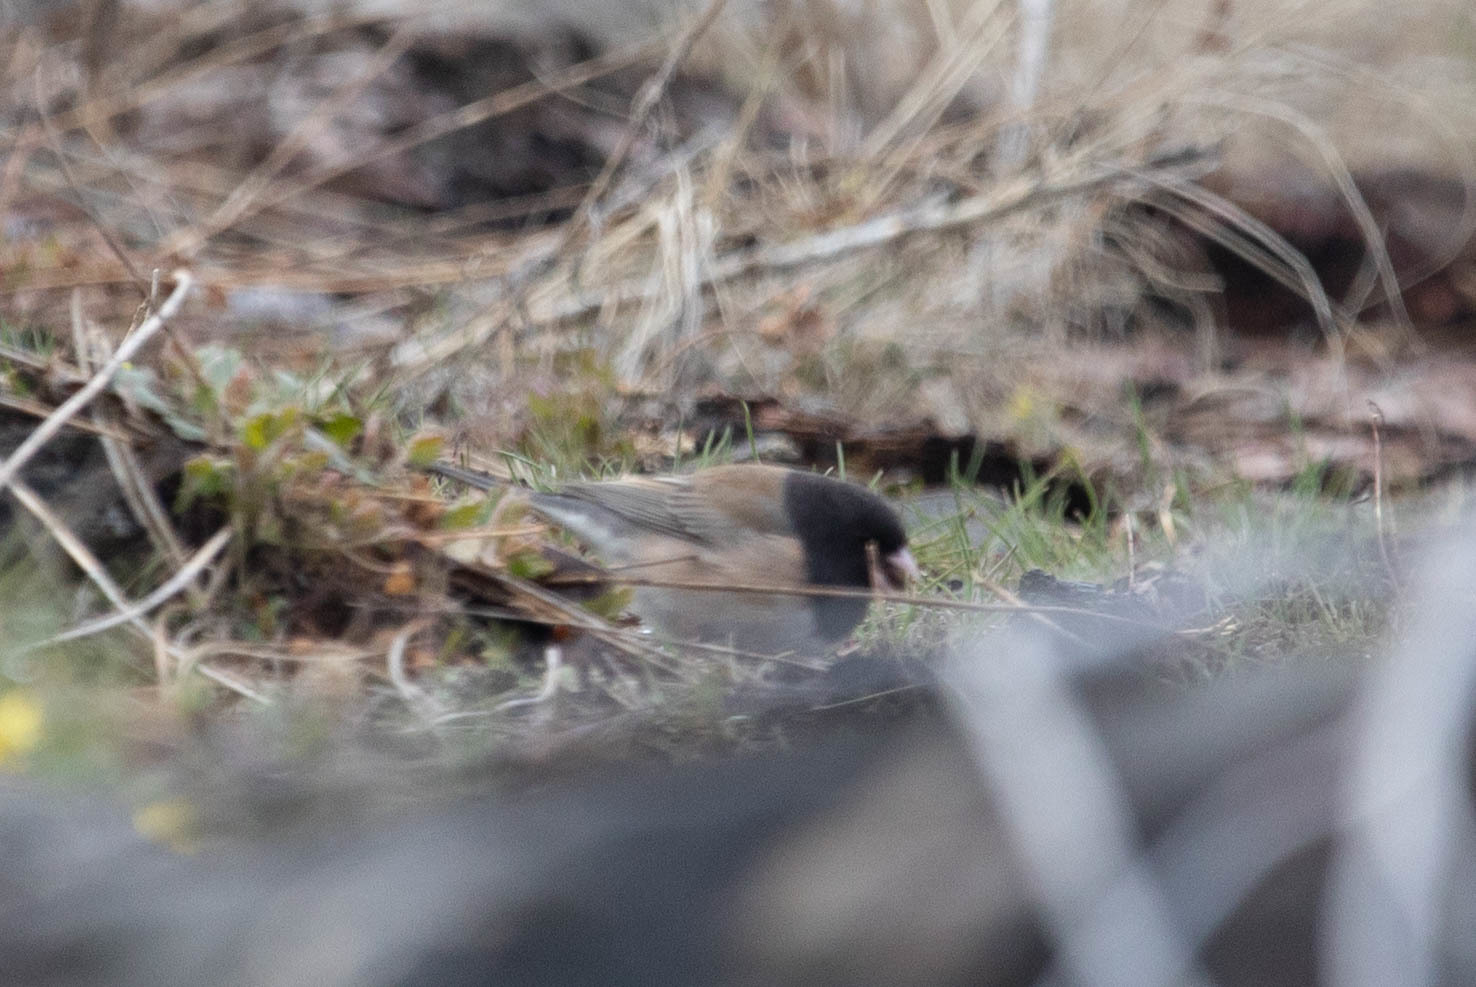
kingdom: Animalia
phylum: Chordata
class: Aves
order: Passeriformes
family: Passerellidae
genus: Junco
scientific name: Junco hyemalis
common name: Dark-eyed junco
